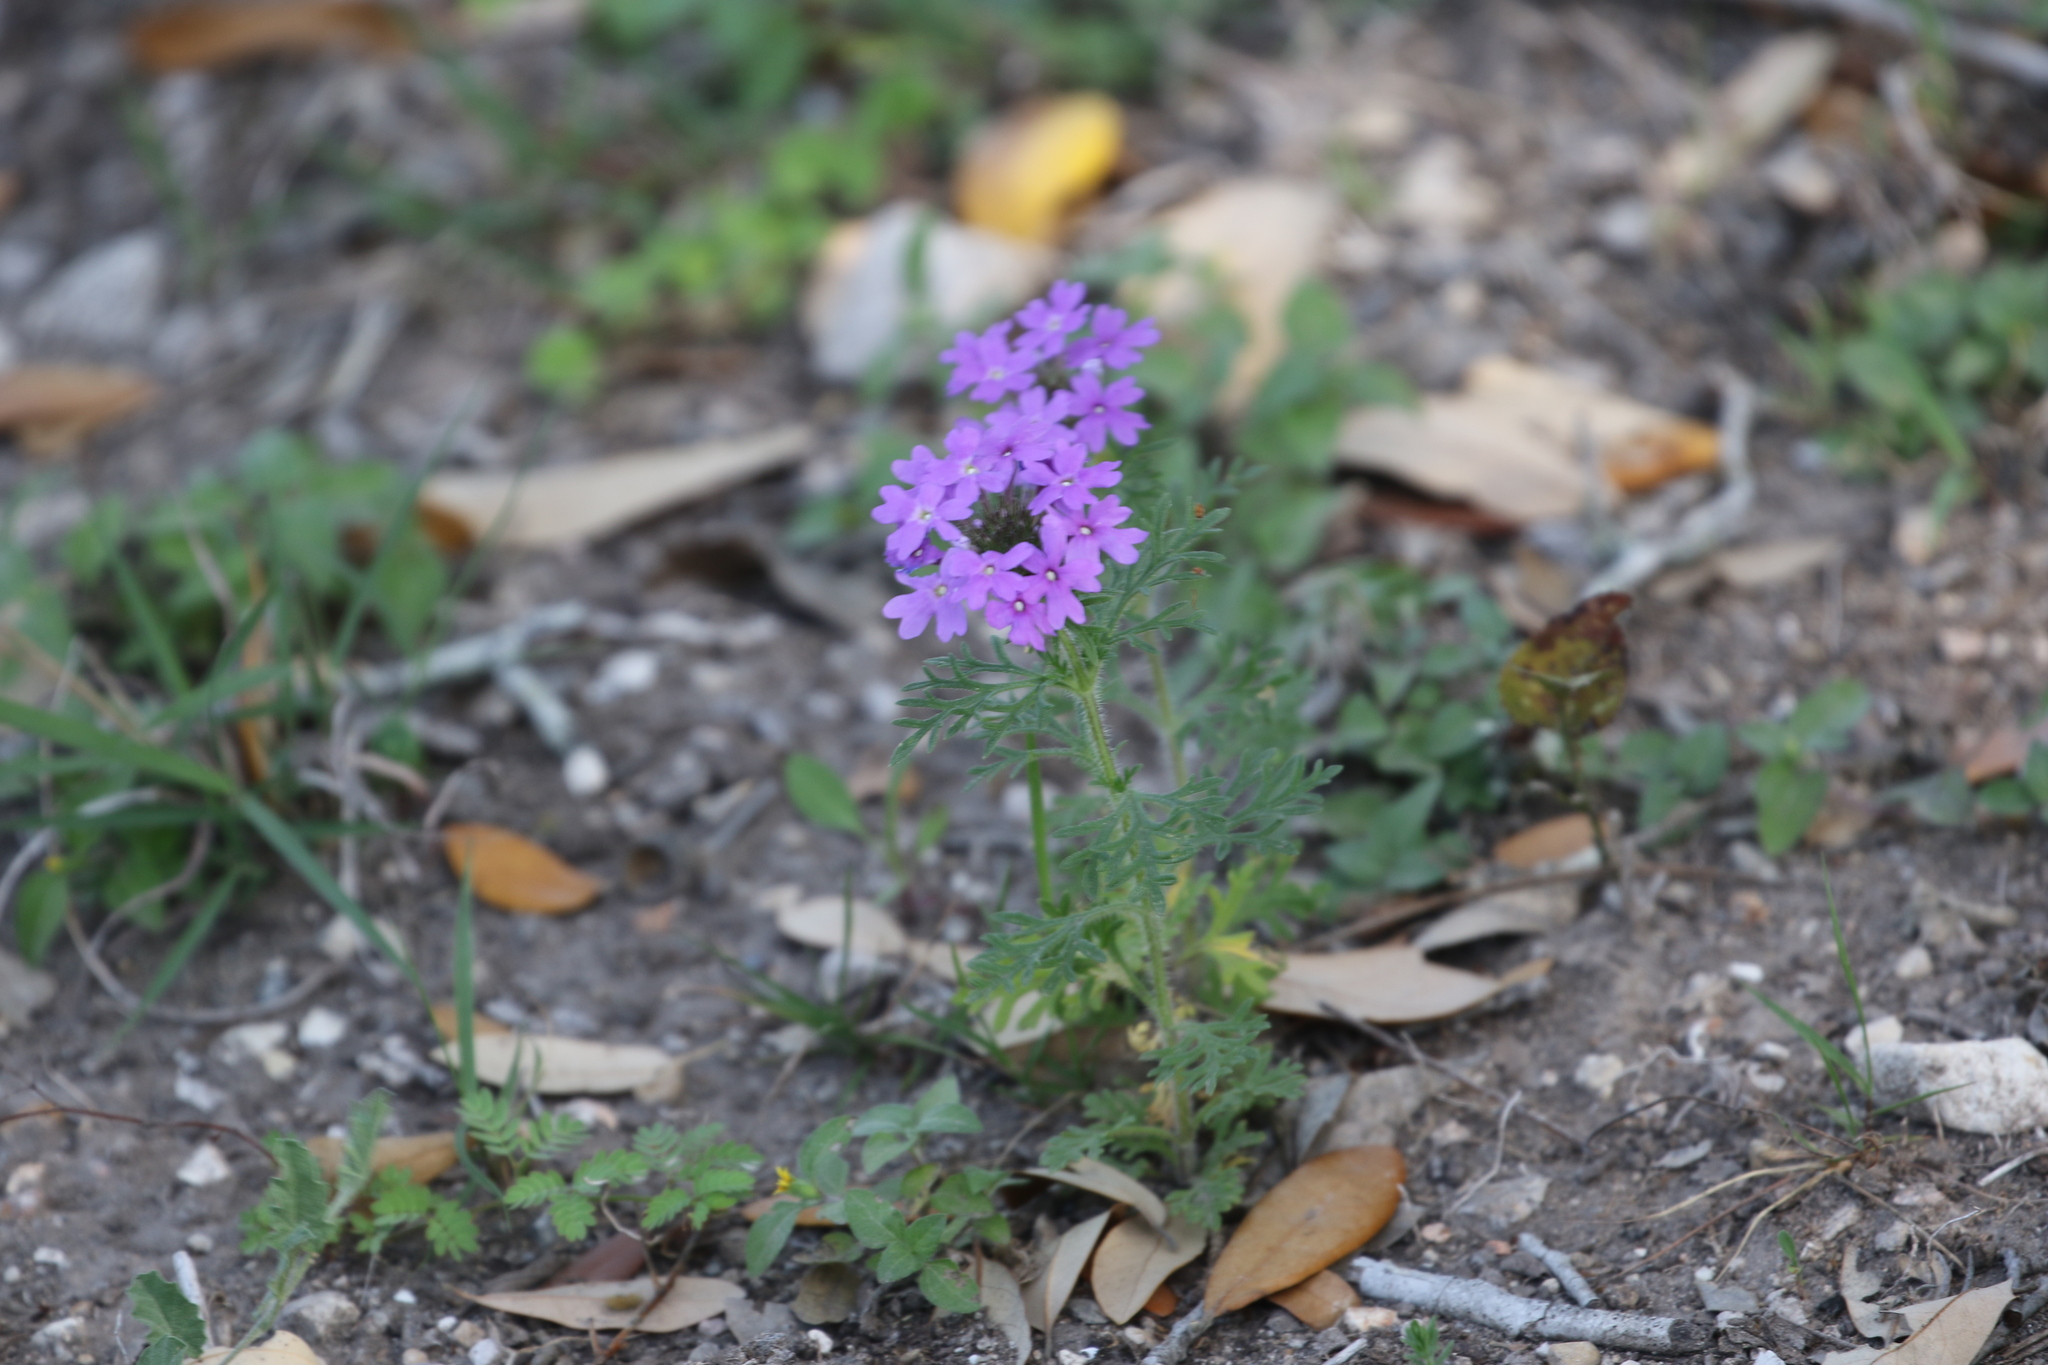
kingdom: Plantae
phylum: Tracheophyta
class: Magnoliopsida
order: Lamiales
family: Verbenaceae
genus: Verbena
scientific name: Verbena bipinnatifida
